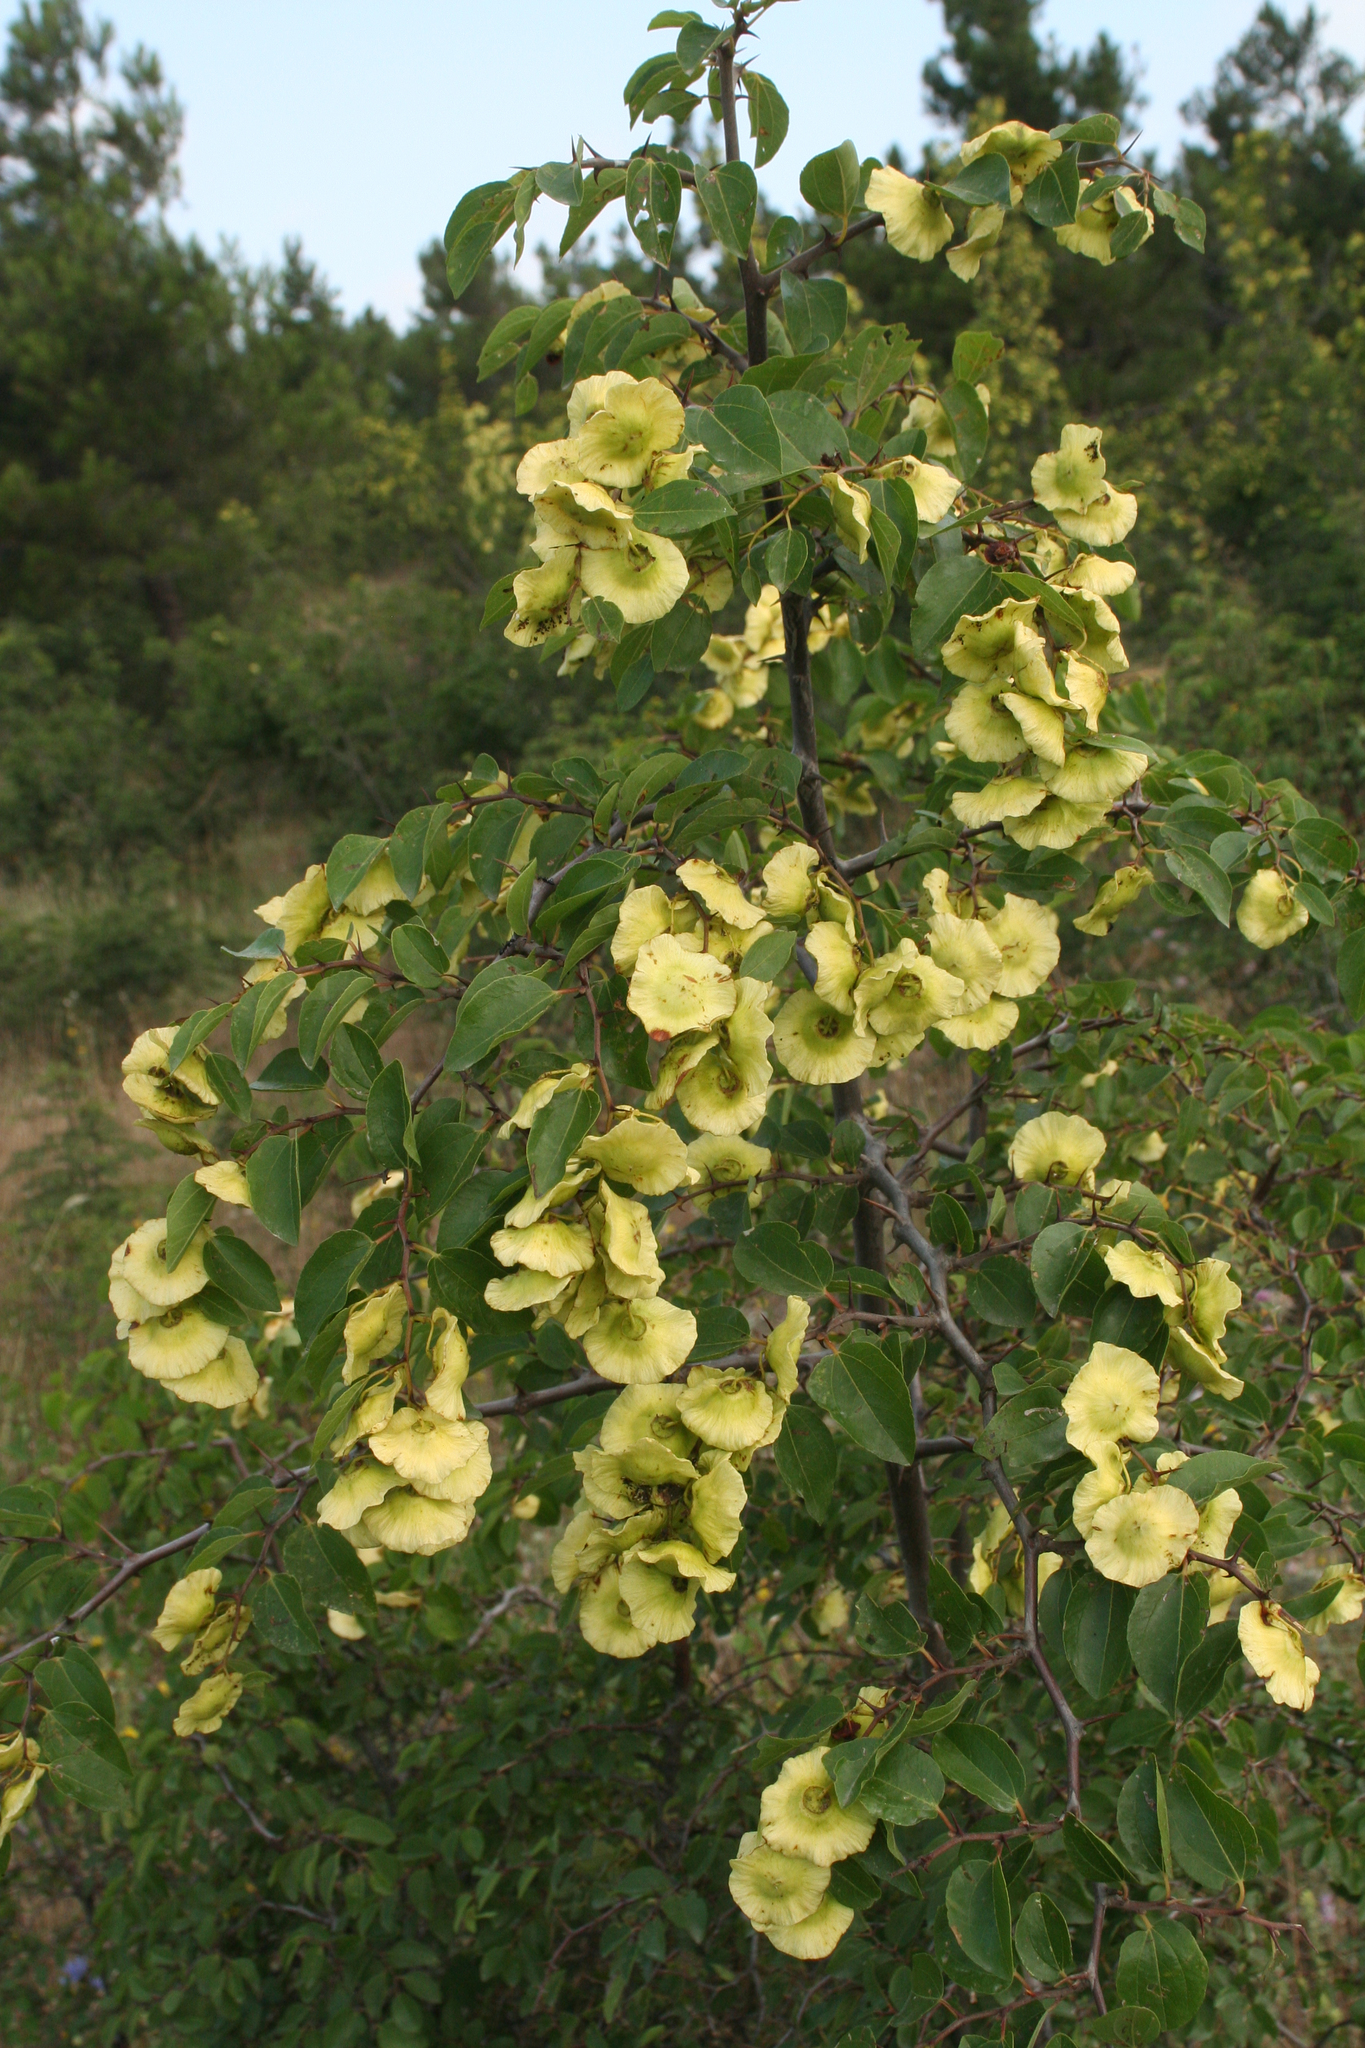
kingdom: Plantae
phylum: Tracheophyta
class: Magnoliopsida
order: Rosales
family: Rhamnaceae
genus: Paliurus
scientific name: Paliurus spina-christi
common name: Jeruselem thorn
